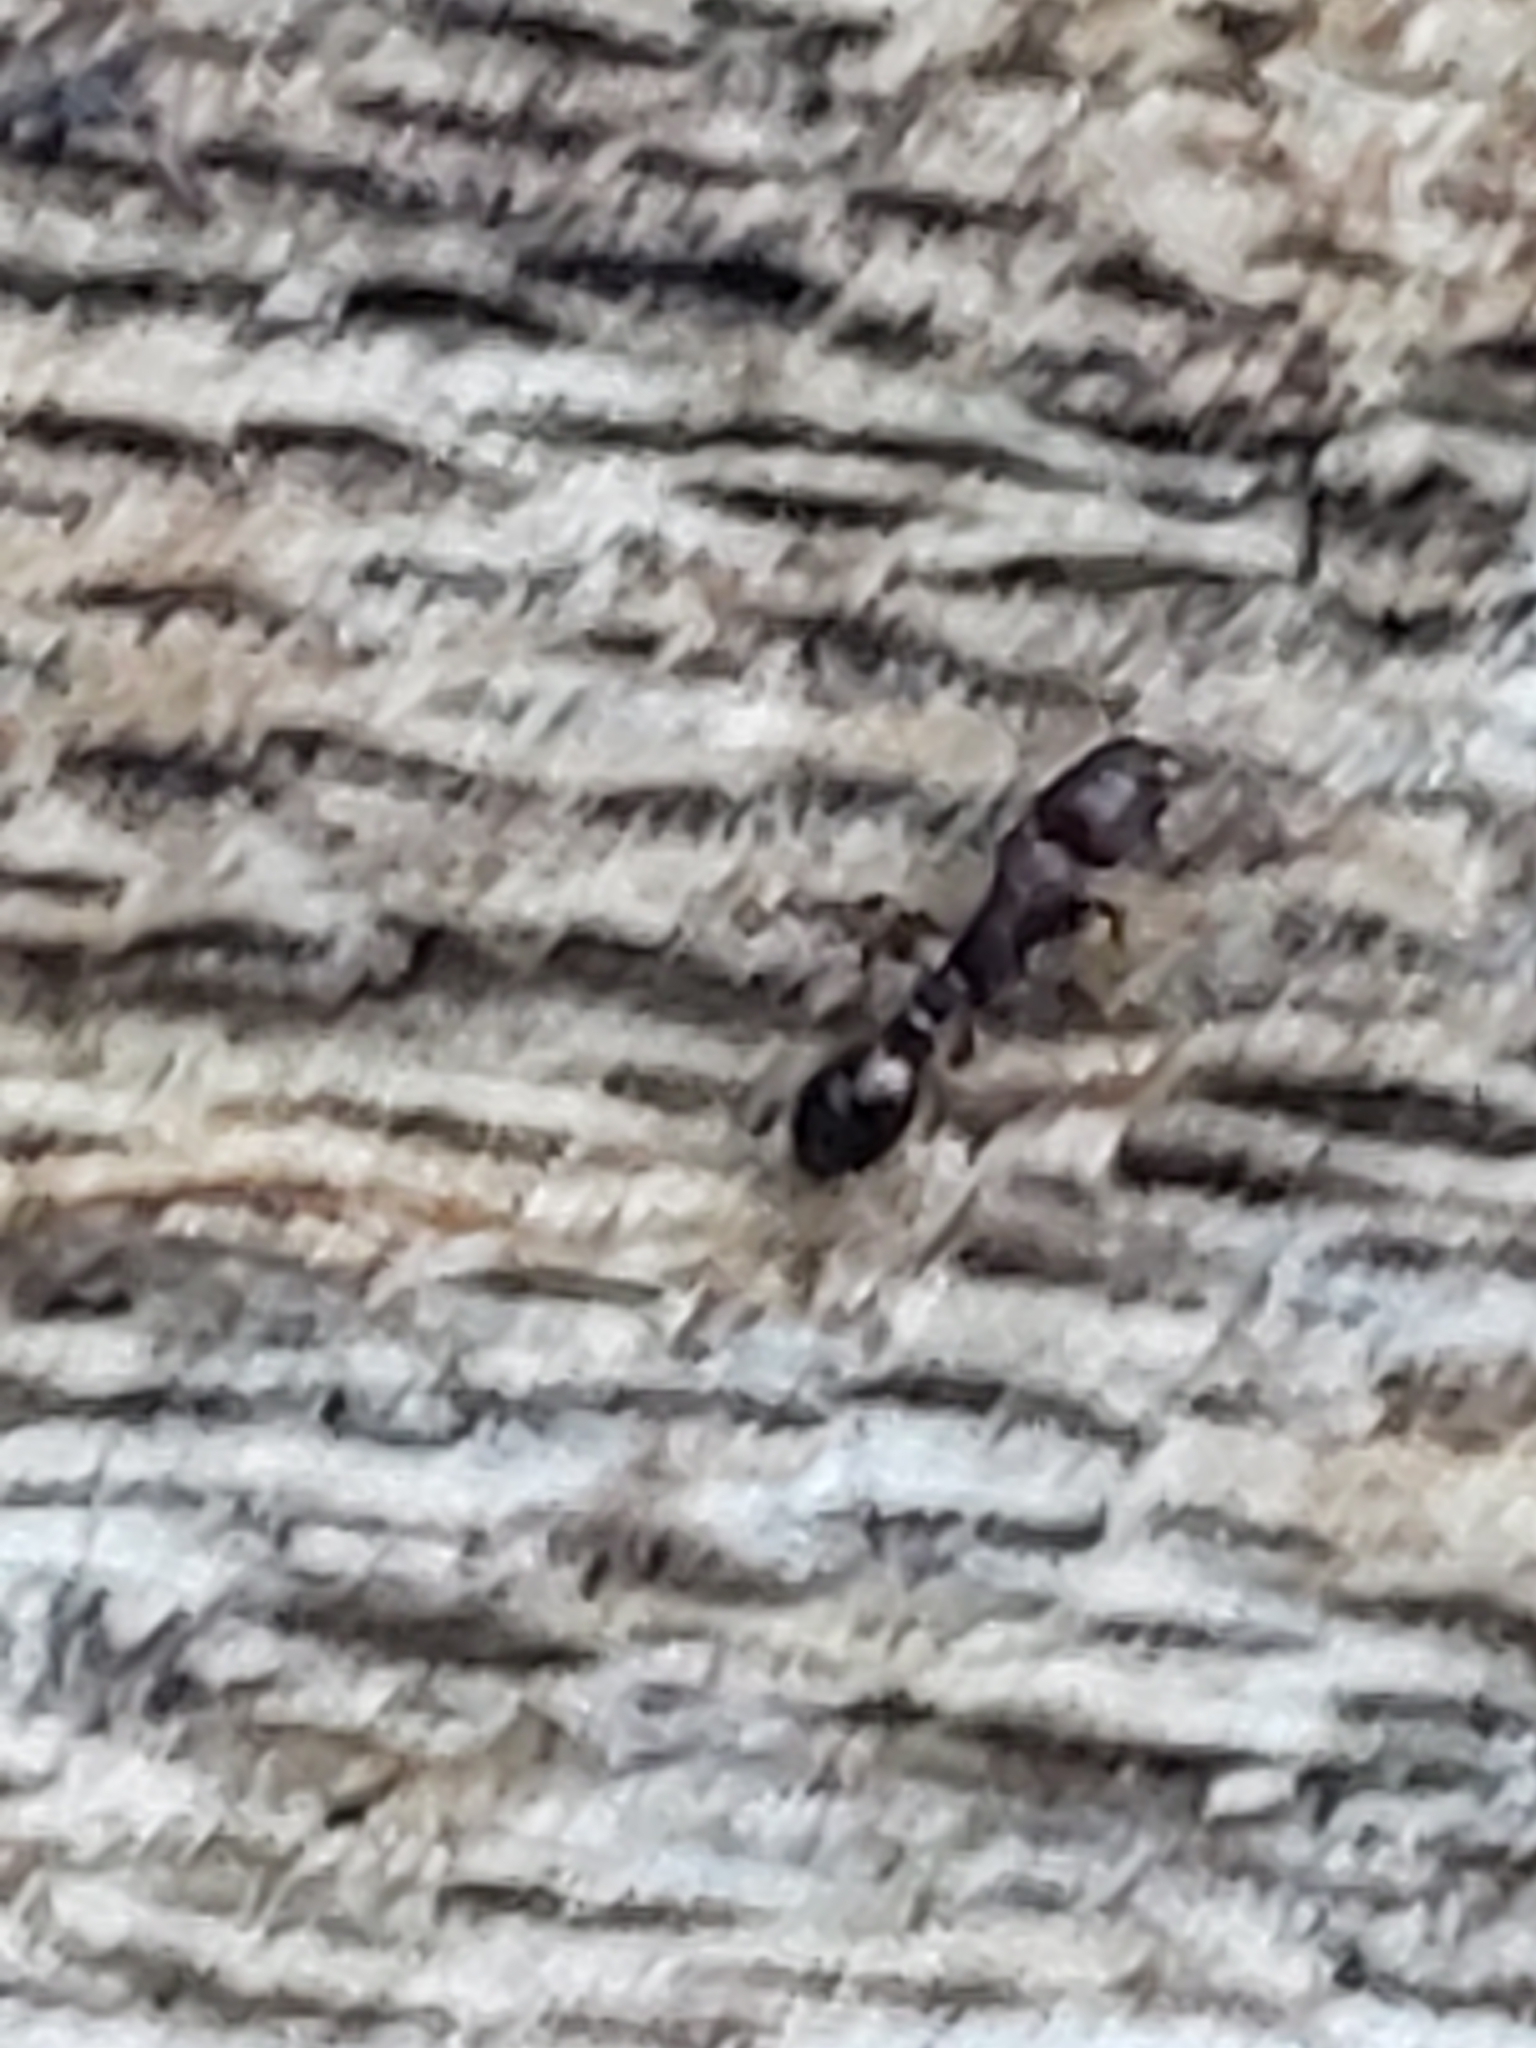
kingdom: Animalia
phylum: Arthropoda
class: Insecta
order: Hymenoptera
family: Formicidae
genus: Tetramorium
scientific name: Tetramorium immigrans
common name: Pavement ant
